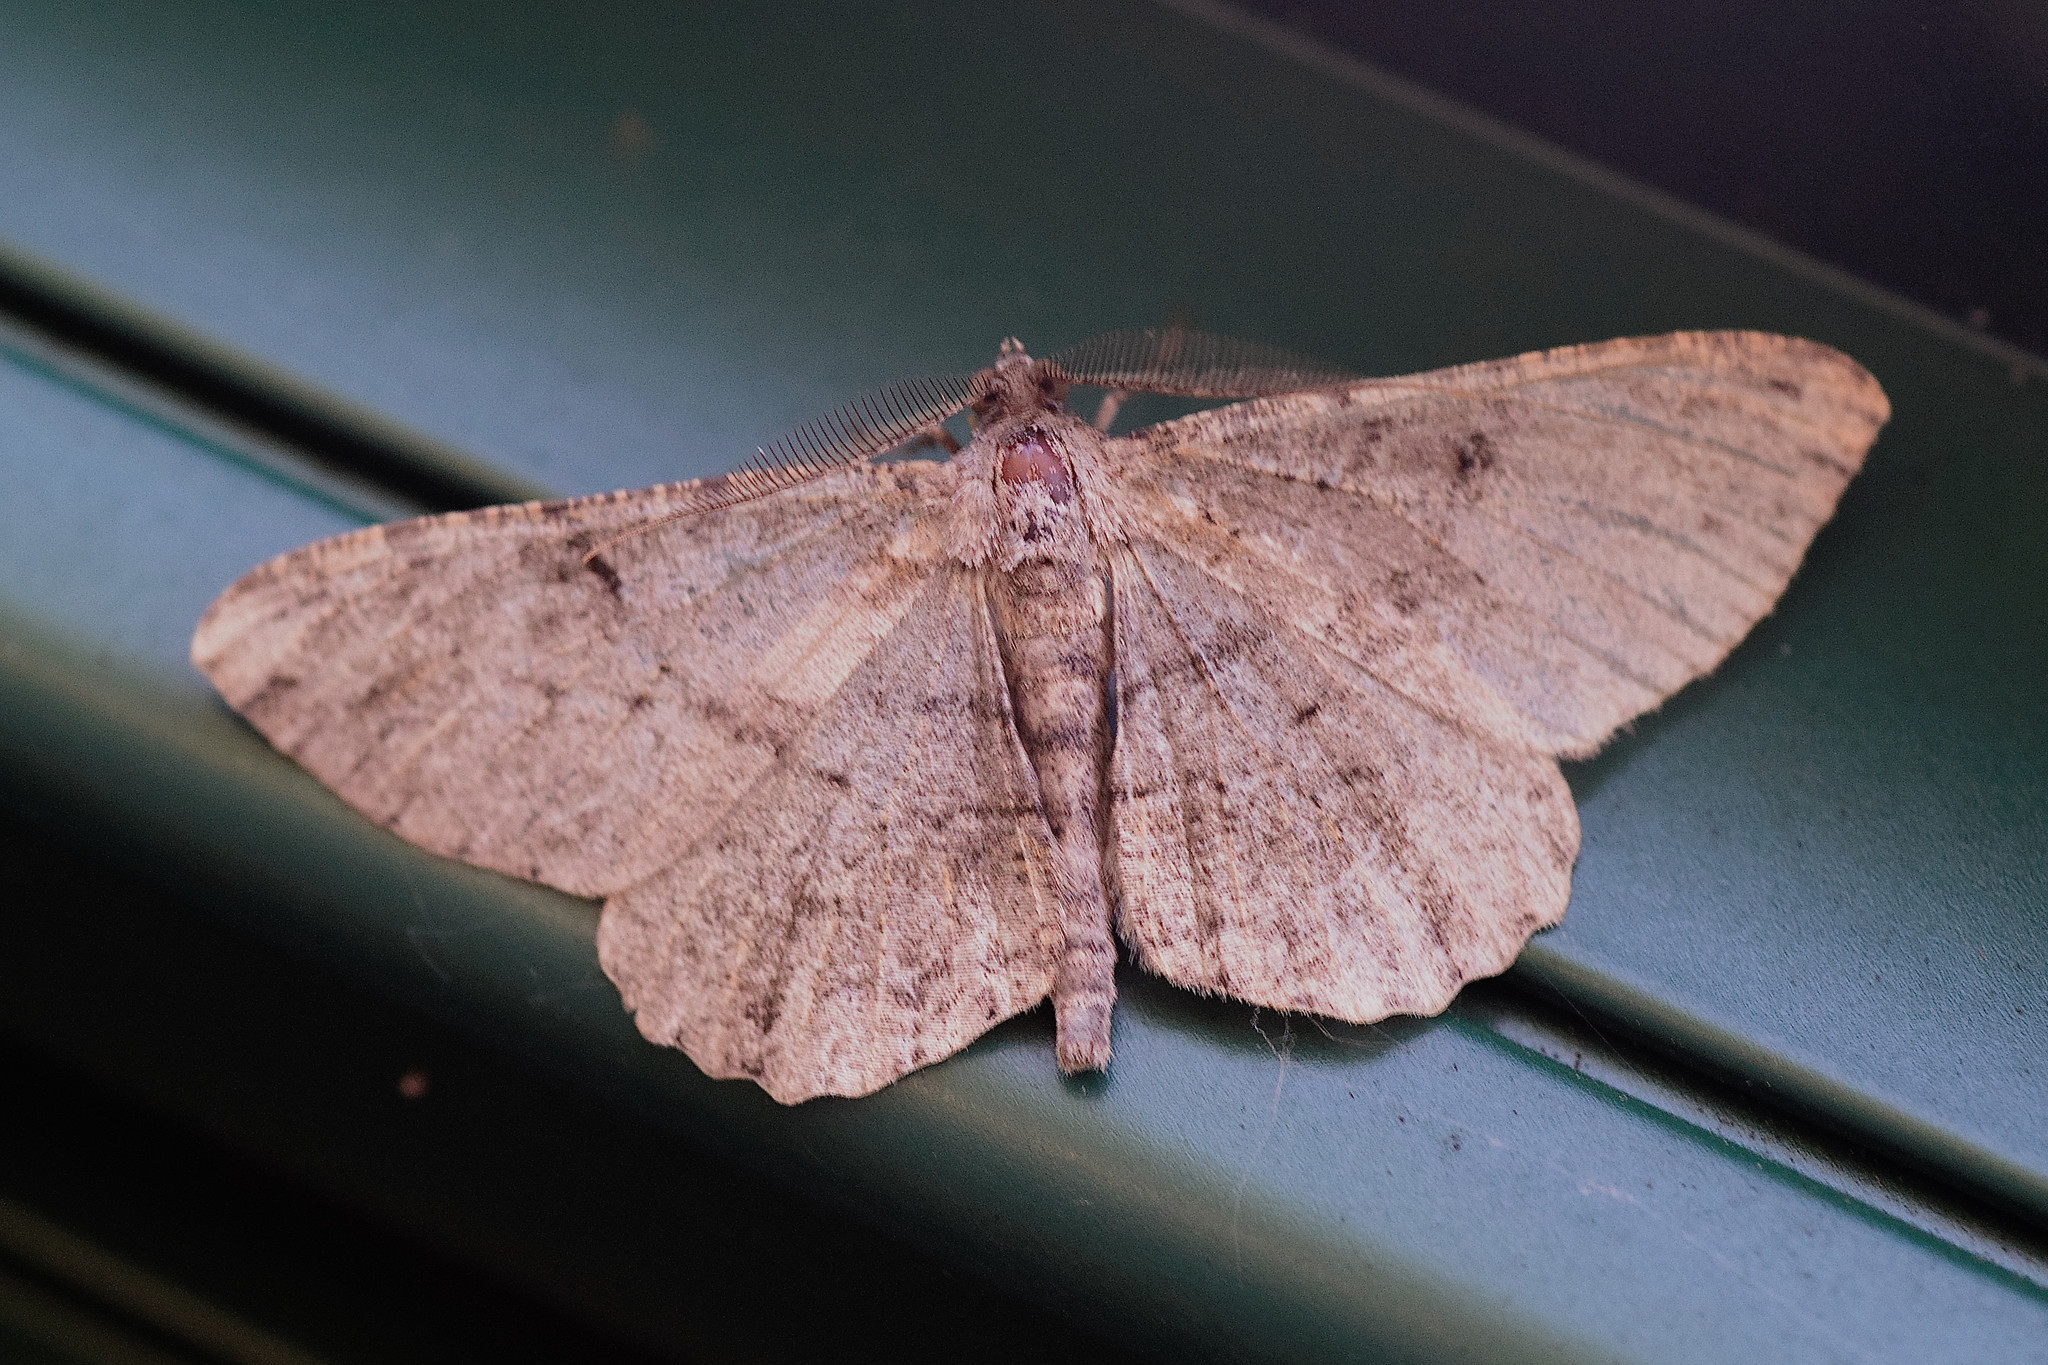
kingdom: Animalia
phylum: Arthropoda
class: Insecta
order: Lepidoptera
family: Geometridae
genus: Peribatodes
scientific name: Peribatodes rhomboidaria
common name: Willow beauty
